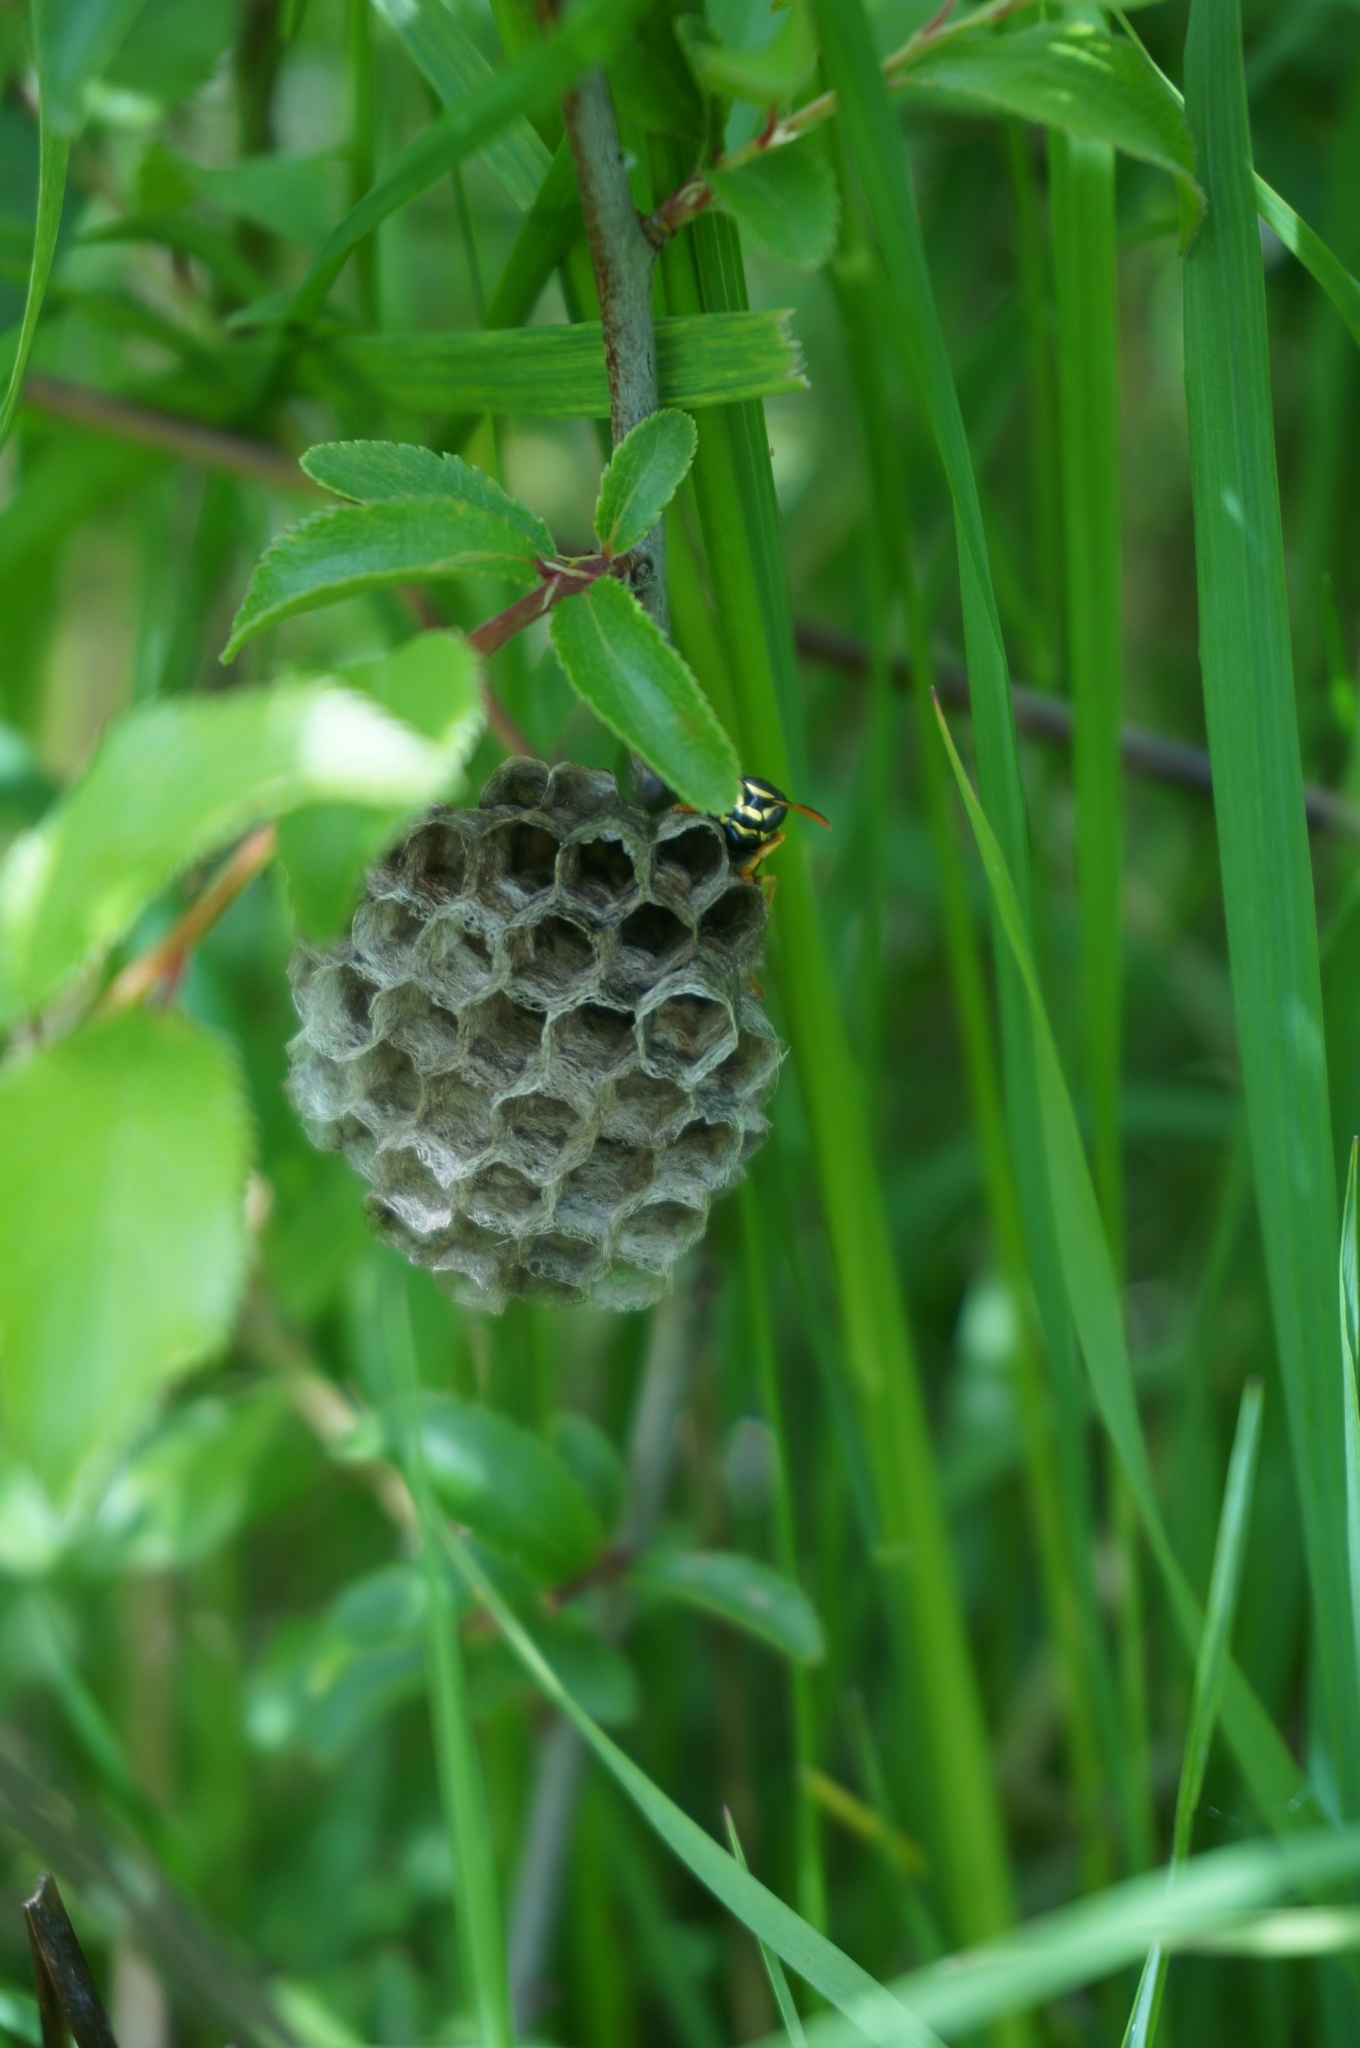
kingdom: Animalia
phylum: Arthropoda
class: Insecta
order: Hymenoptera
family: Eumenidae
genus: Polistes
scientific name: Polistes nimpha
